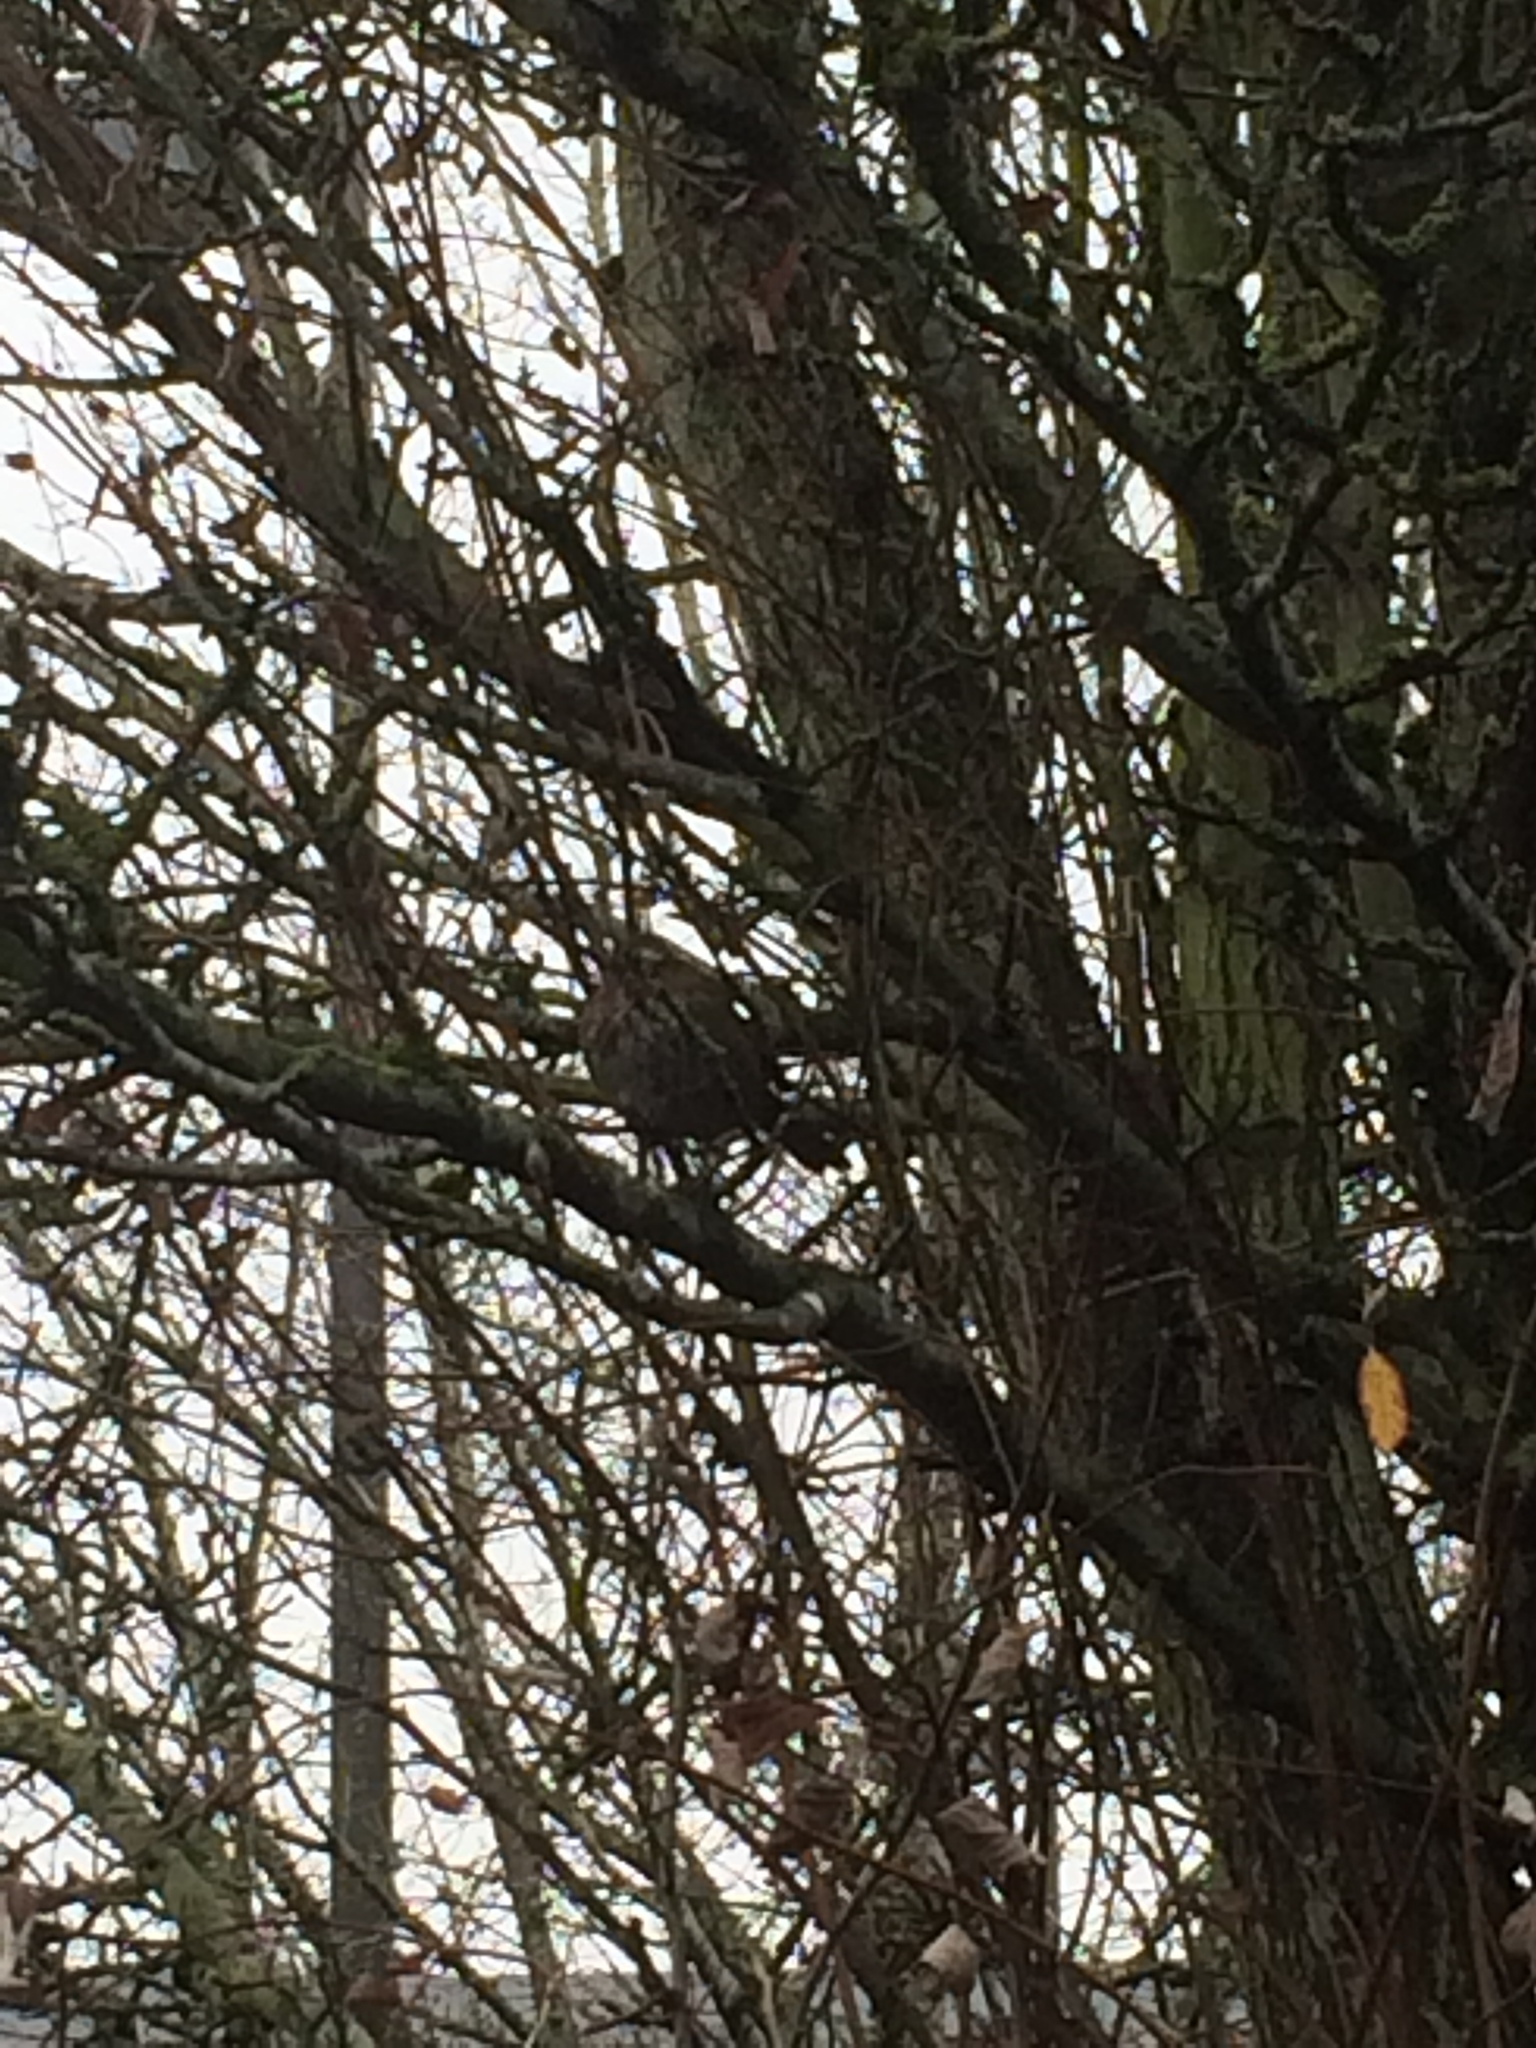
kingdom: Animalia
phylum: Chordata
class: Aves
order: Passeriformes
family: Passerellidae
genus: Melospiza
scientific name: Melospiza melodia
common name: Song sparrow
